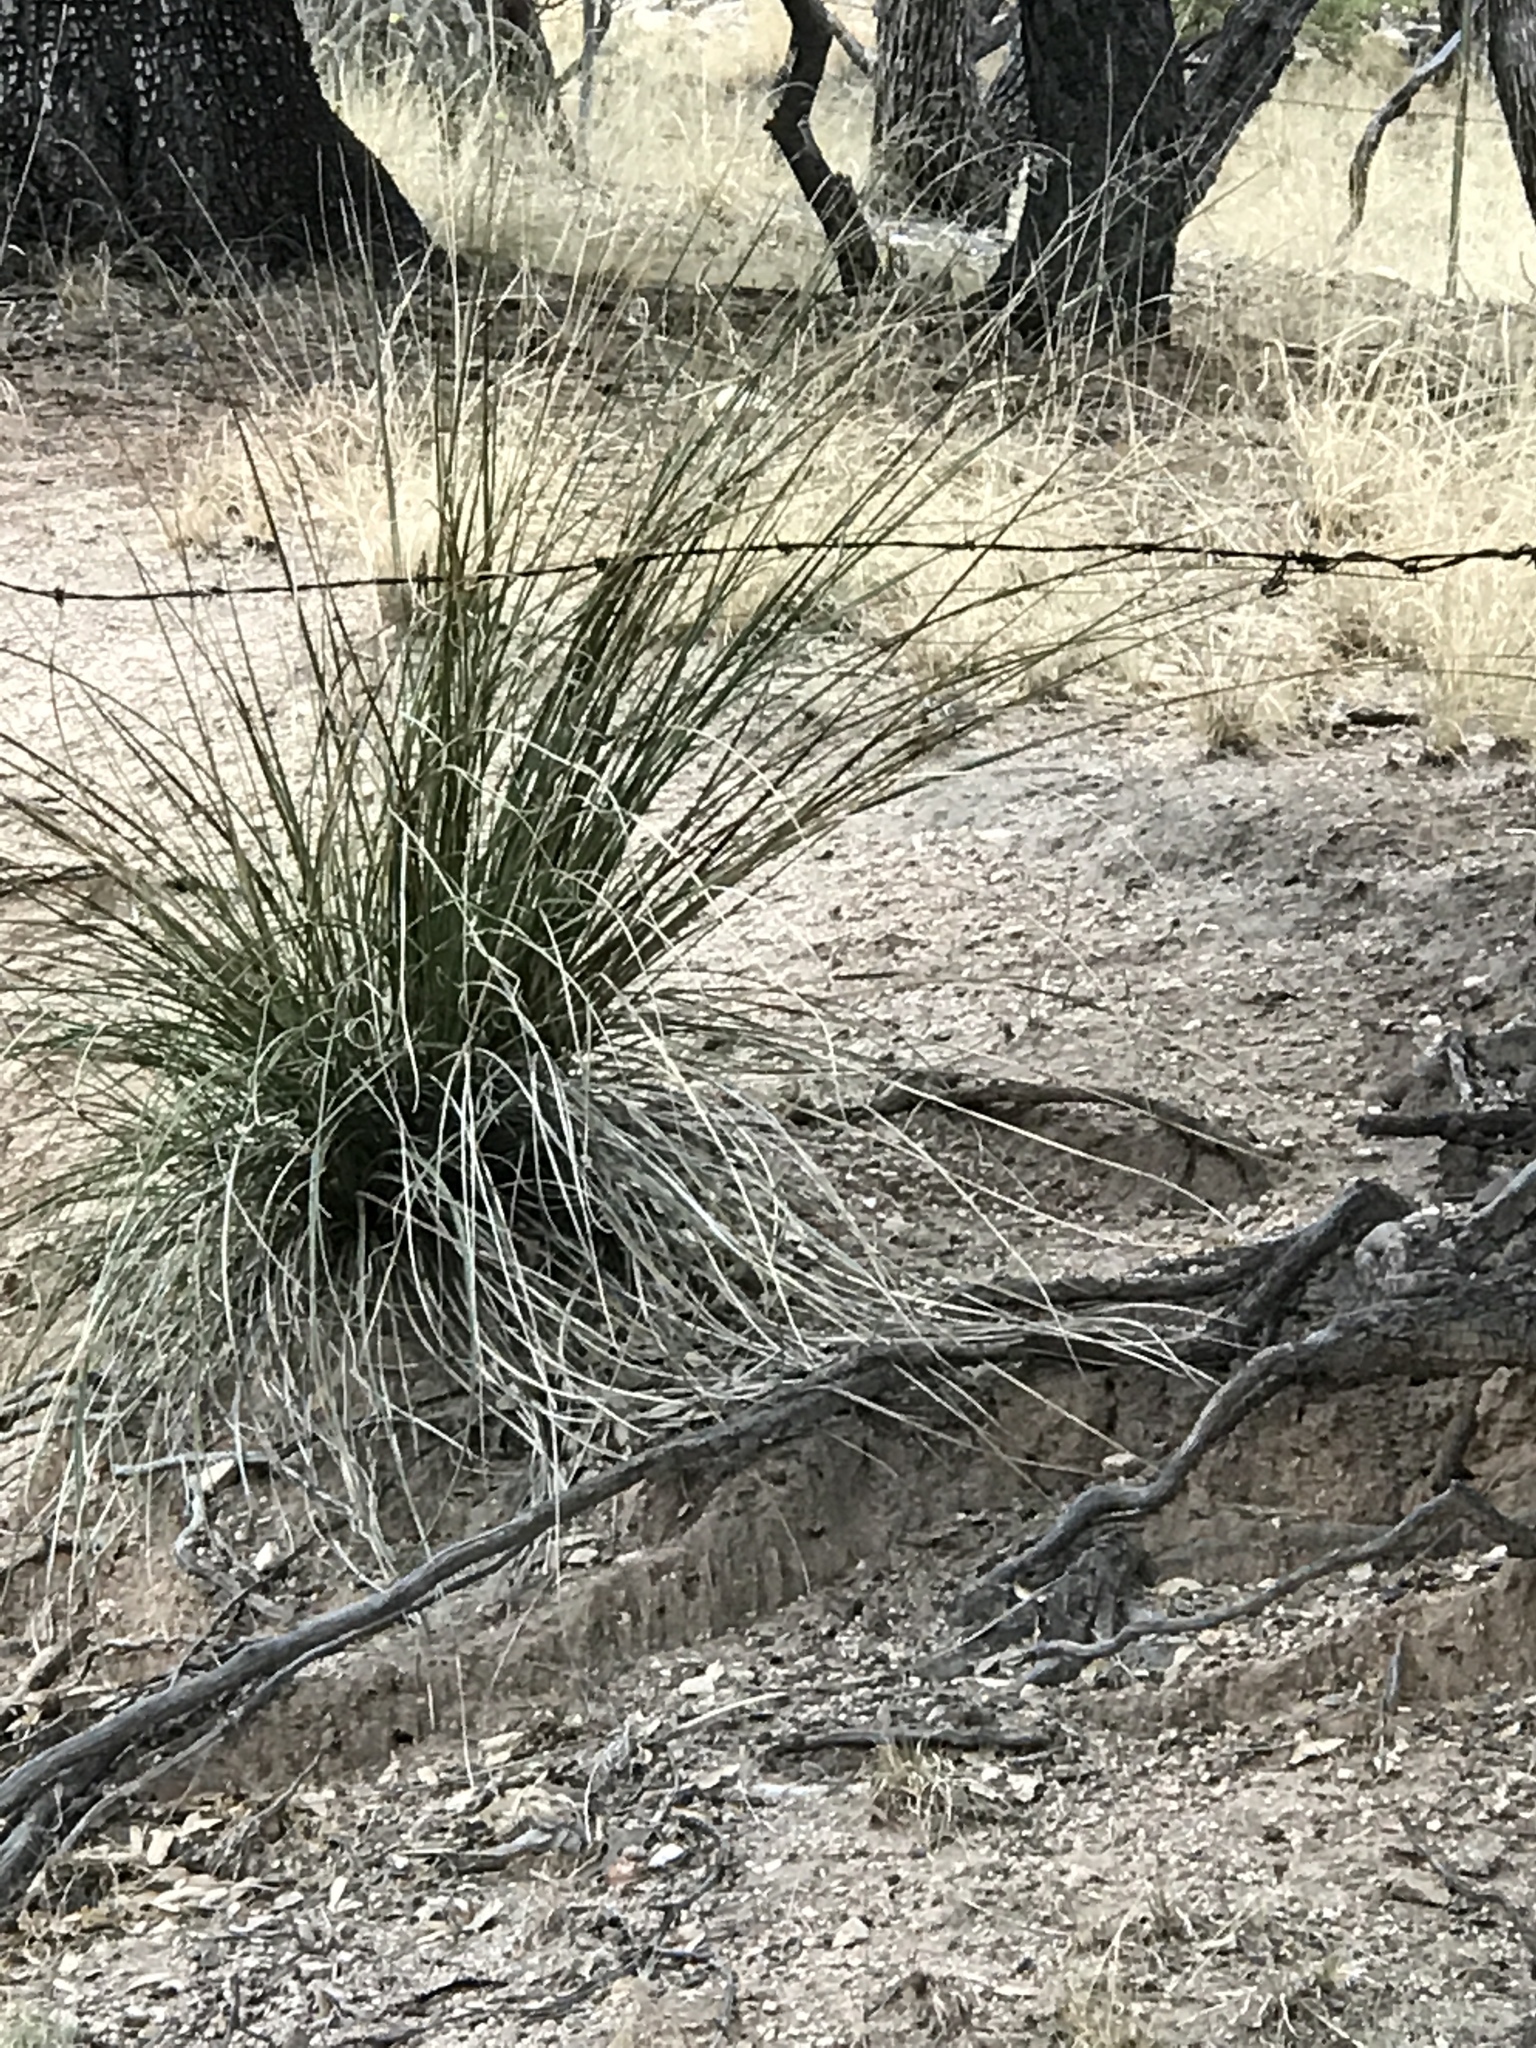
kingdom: Plantae
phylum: Tracheophyta
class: Liliopsida
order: Asparagales
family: Asparagaceae
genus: Nolina
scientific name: Nolina microcarpa
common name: Bear-grass
